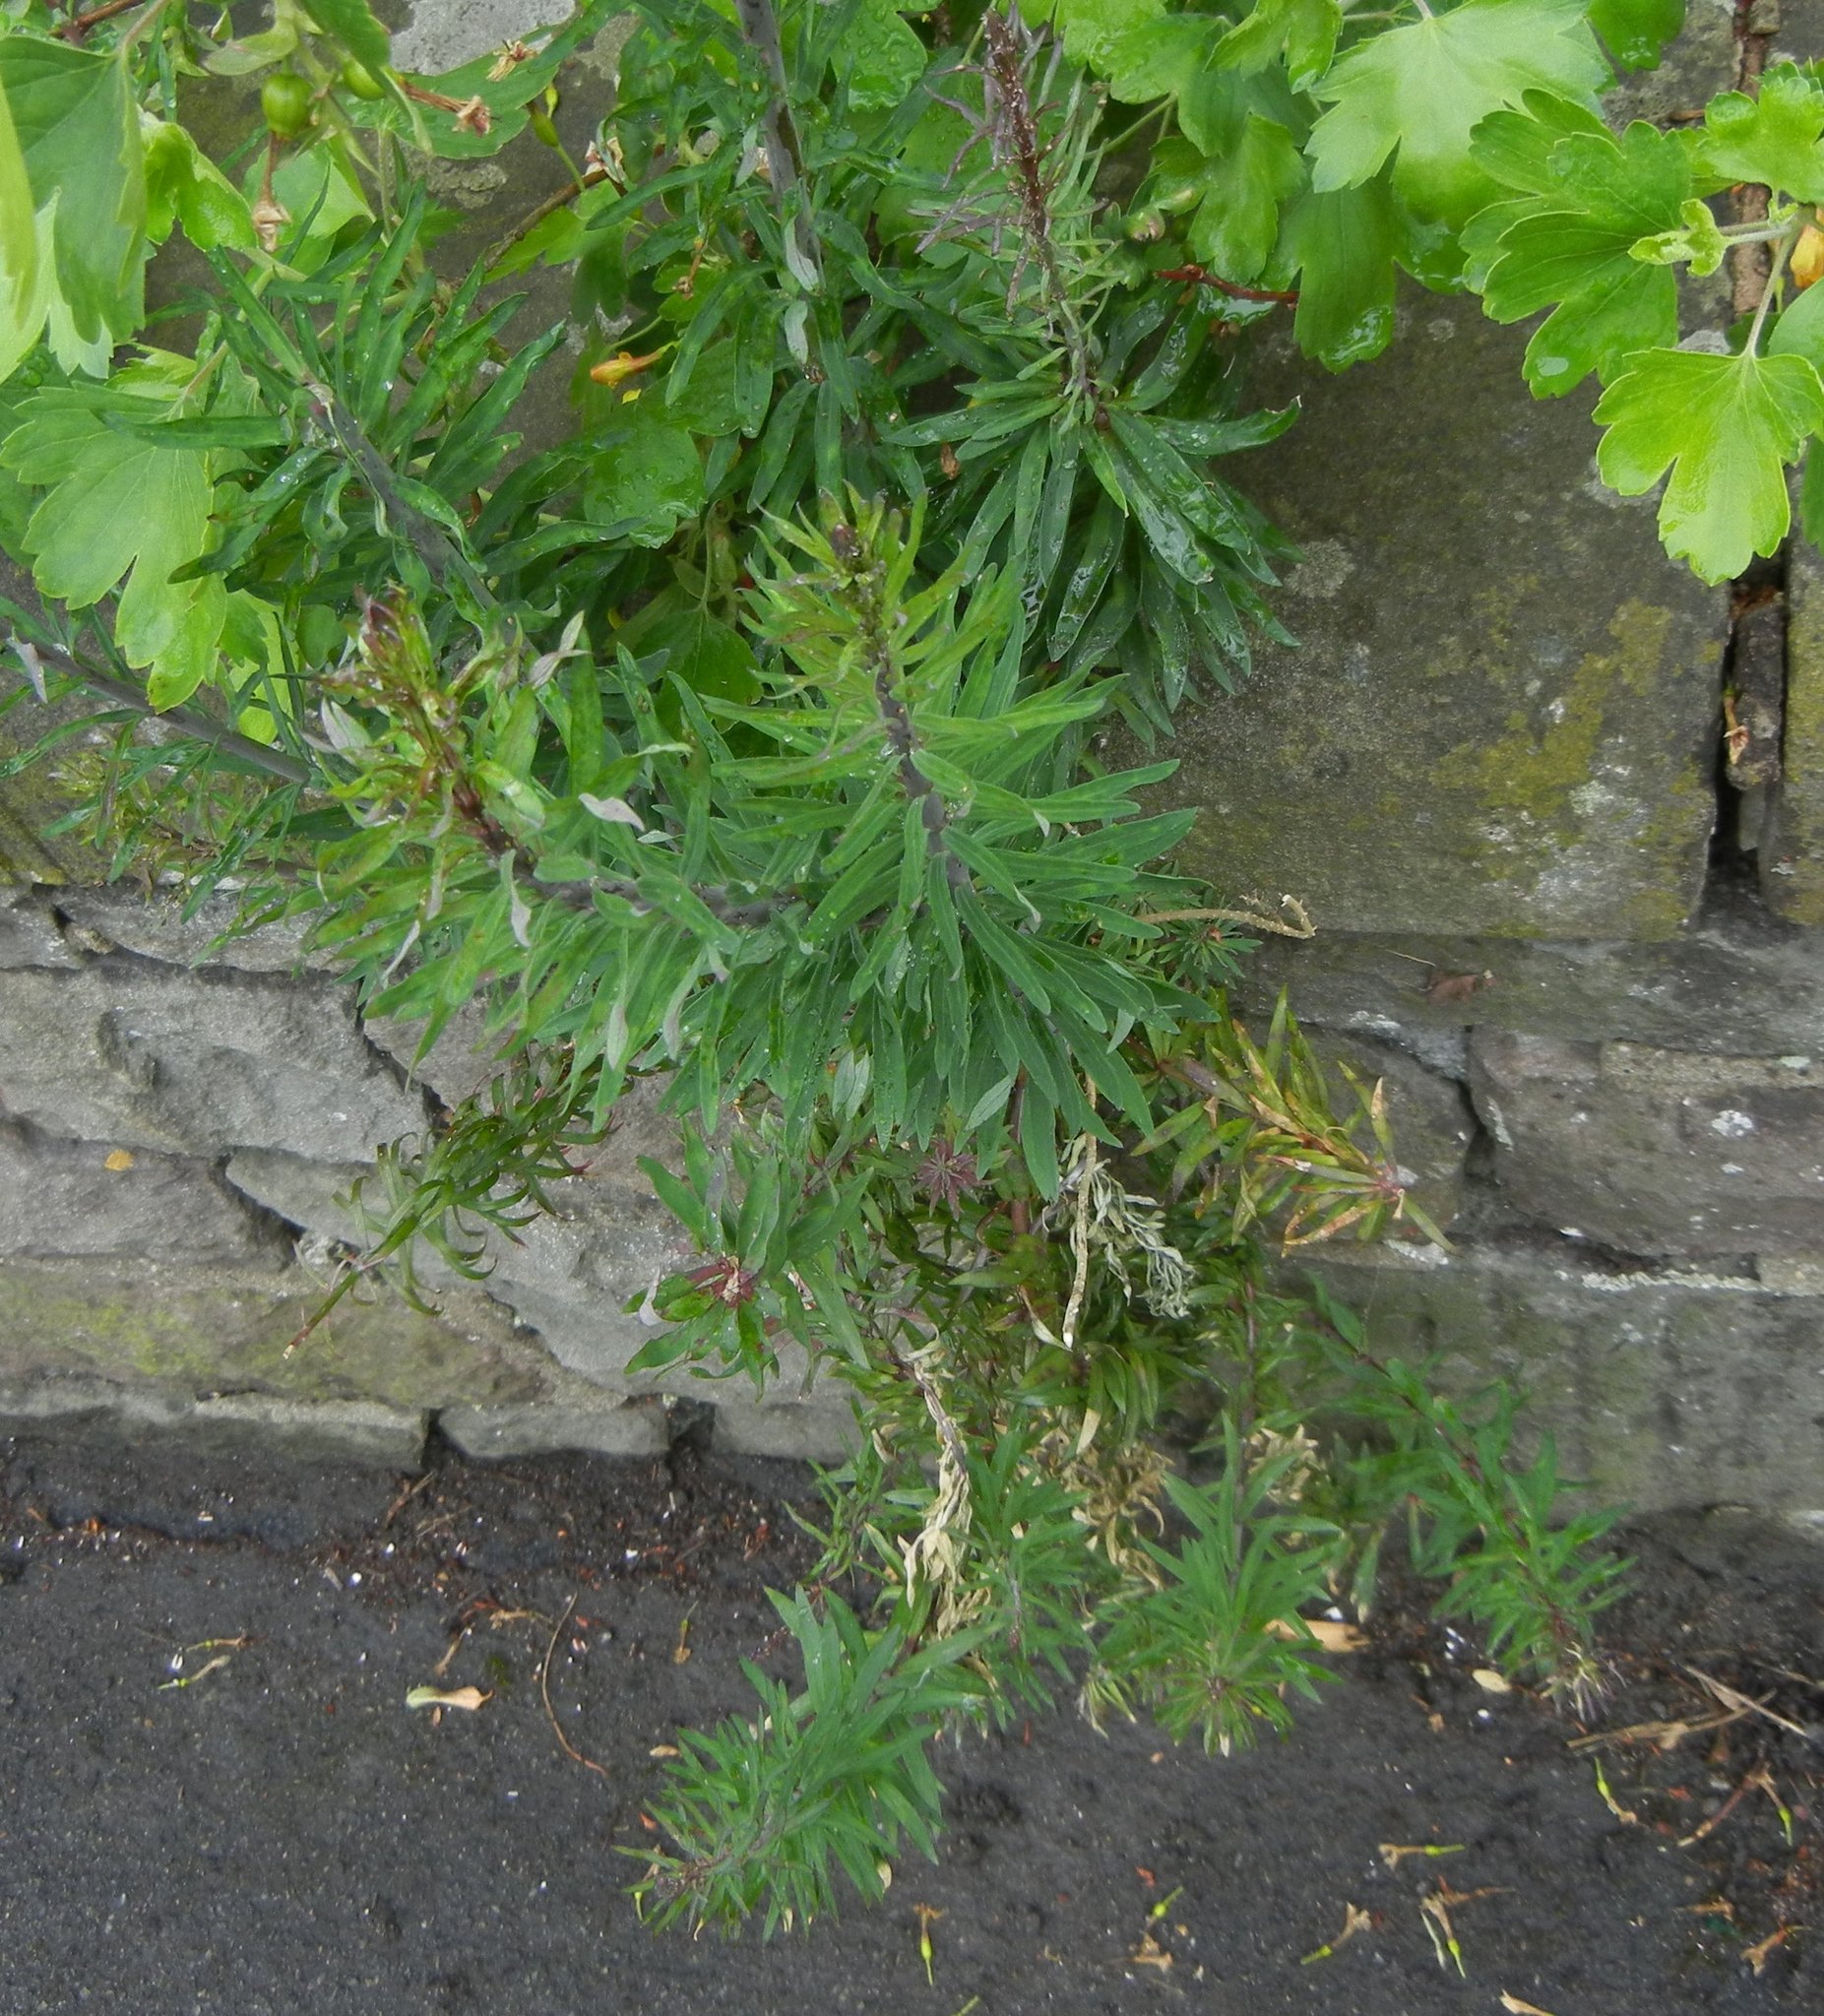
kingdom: Plantae
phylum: Tracheophyta
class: Magnoliopsida
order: Lamiales
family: Plantaginaceae
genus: Linaria
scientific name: Linaria purpurea
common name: Purple toadflax
